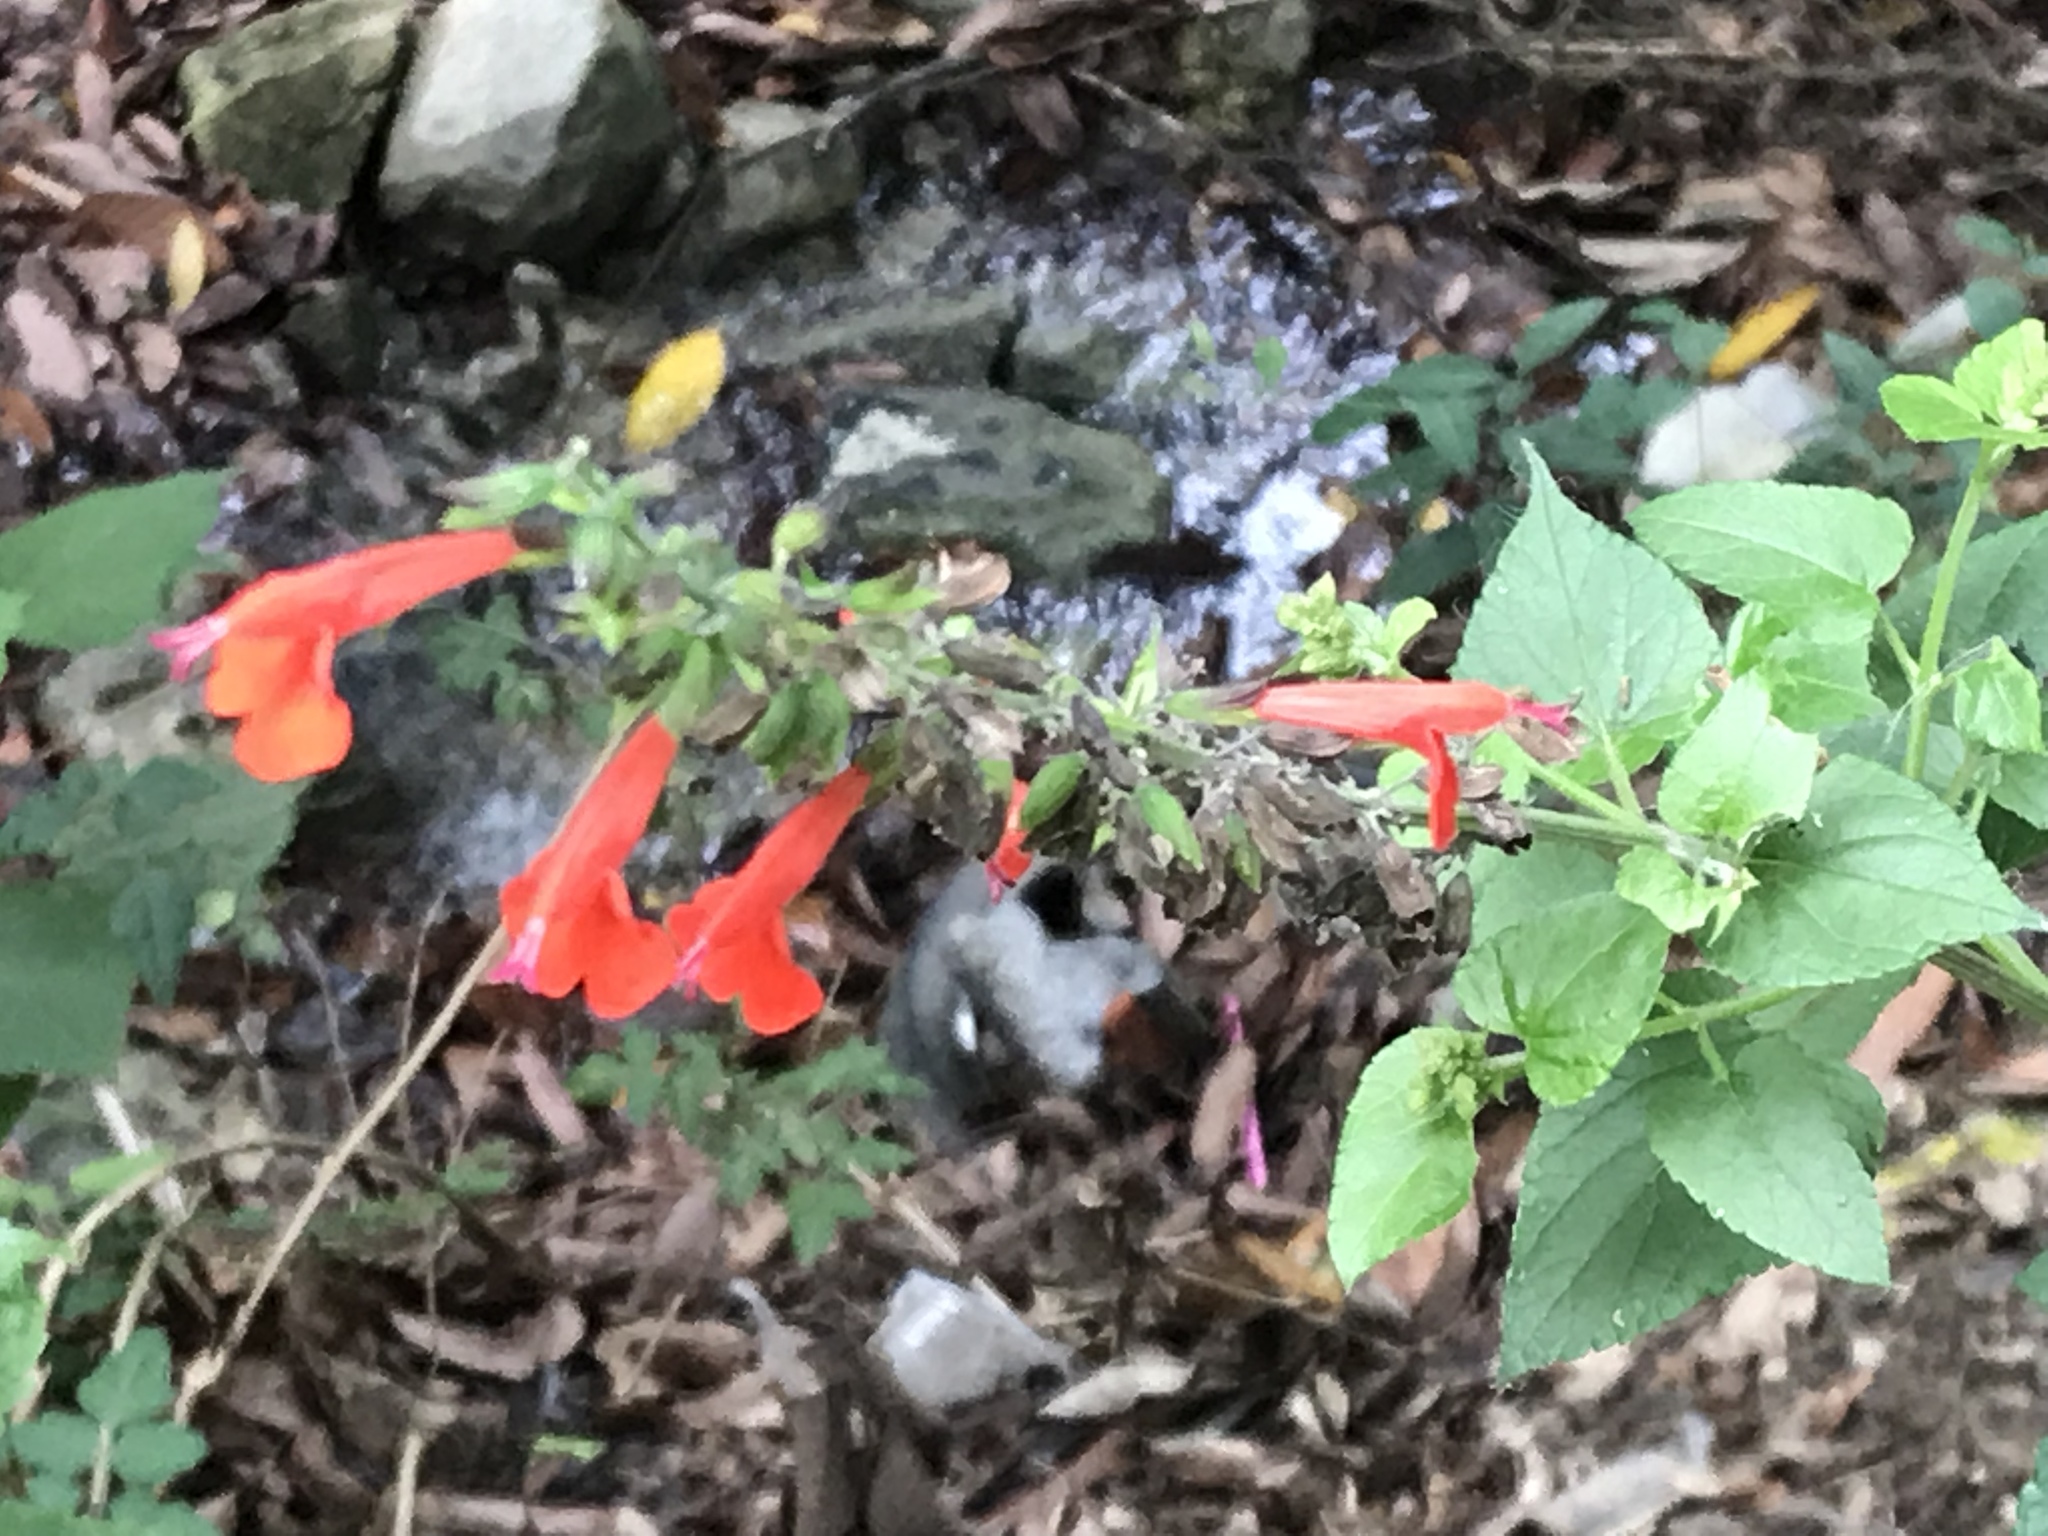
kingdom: Plantae
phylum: Tracheophyta
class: Magnoliopsida
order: Lamiales
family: Lamiaceae
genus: Salvia
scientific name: Salvia coccinea
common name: Blood sage
